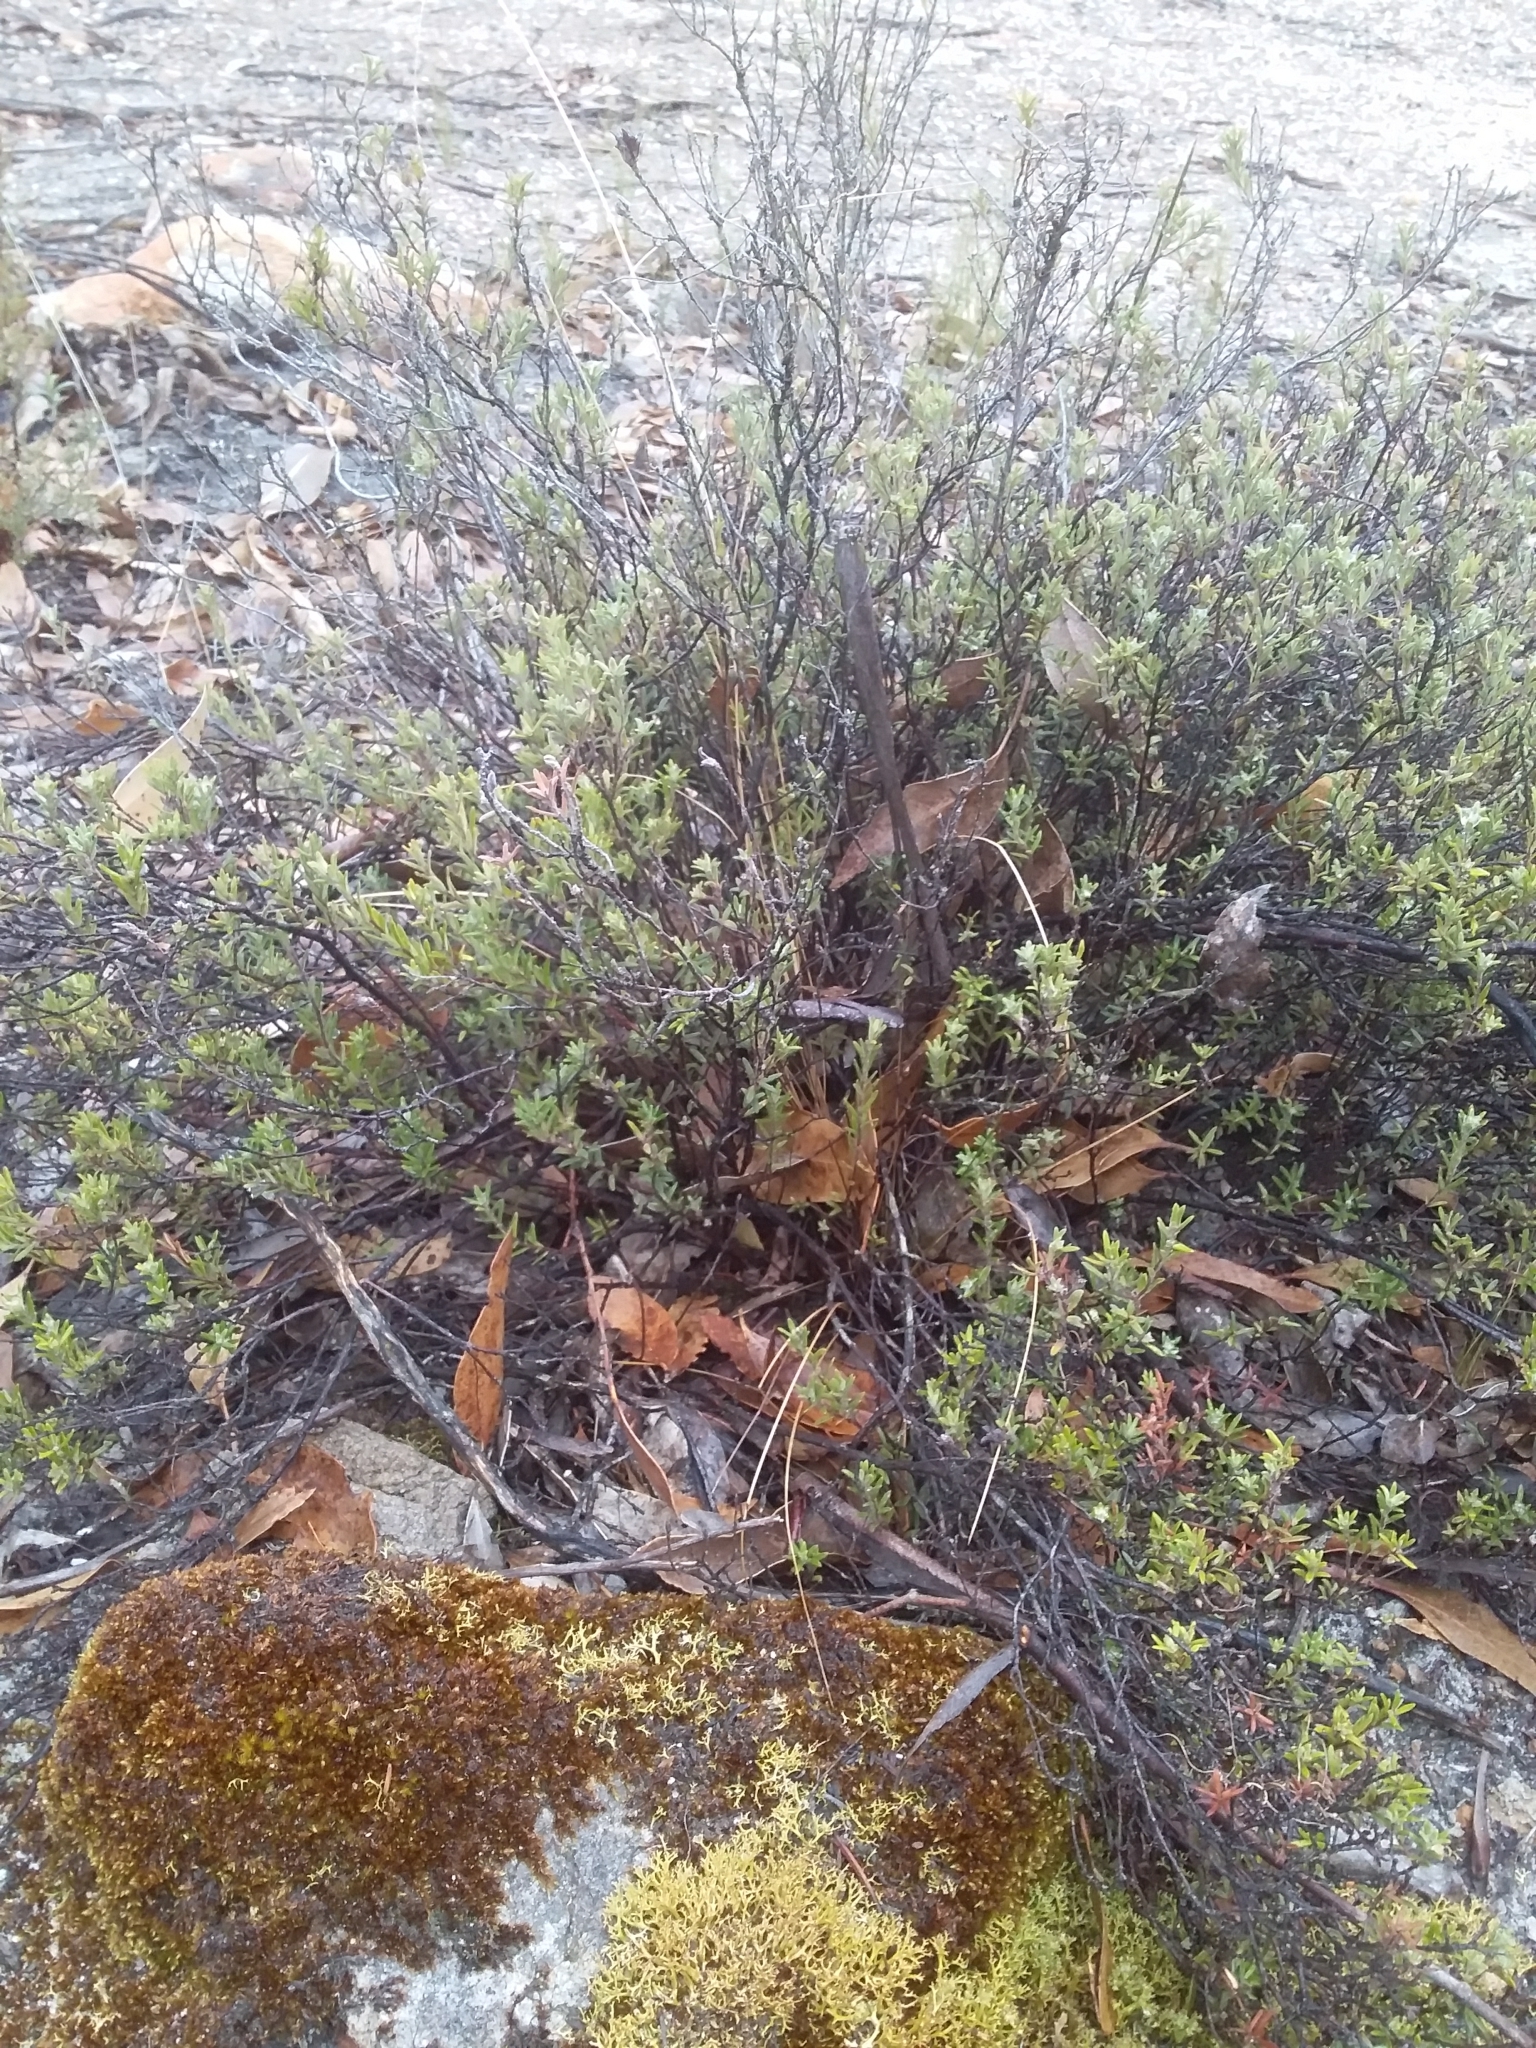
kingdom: Plantae
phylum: Tracheophyta
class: Magnoliopsida
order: Dilleniales
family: Dilleniaceae
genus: Hibbertia
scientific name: Hibbertia crinita
